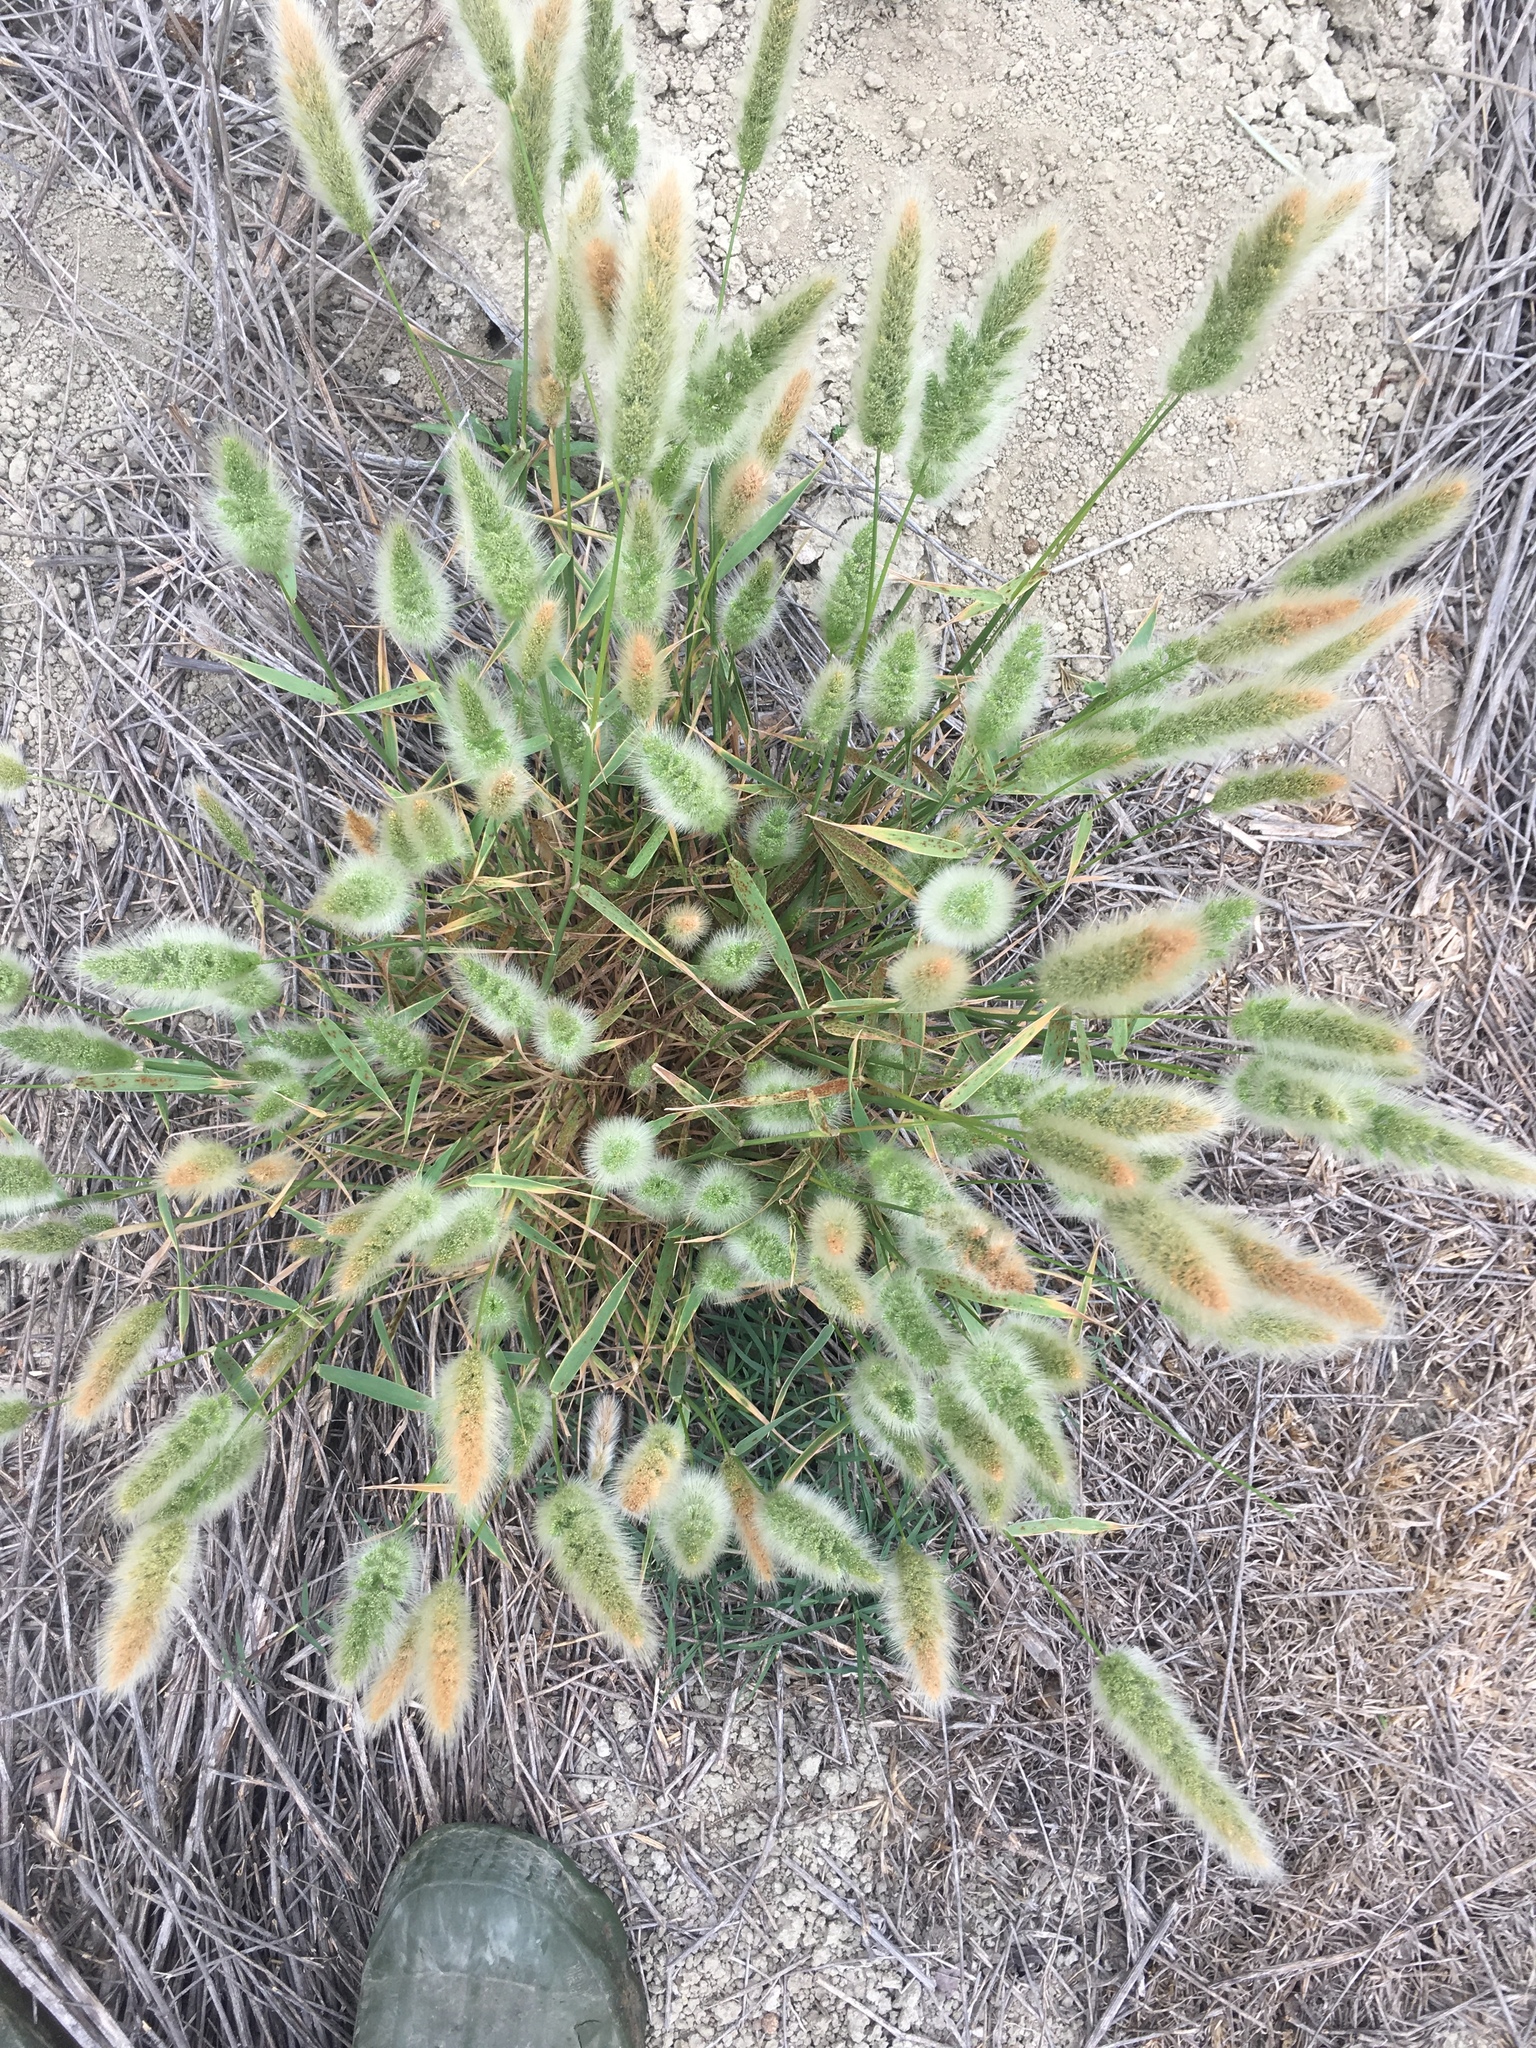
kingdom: Plantae
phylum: Tracheophyta
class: Liliopsida
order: Poales
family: Poaceae
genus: Polypogon
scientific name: Polypogon monspeliensis
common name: Annual rabbitsfoot grass
